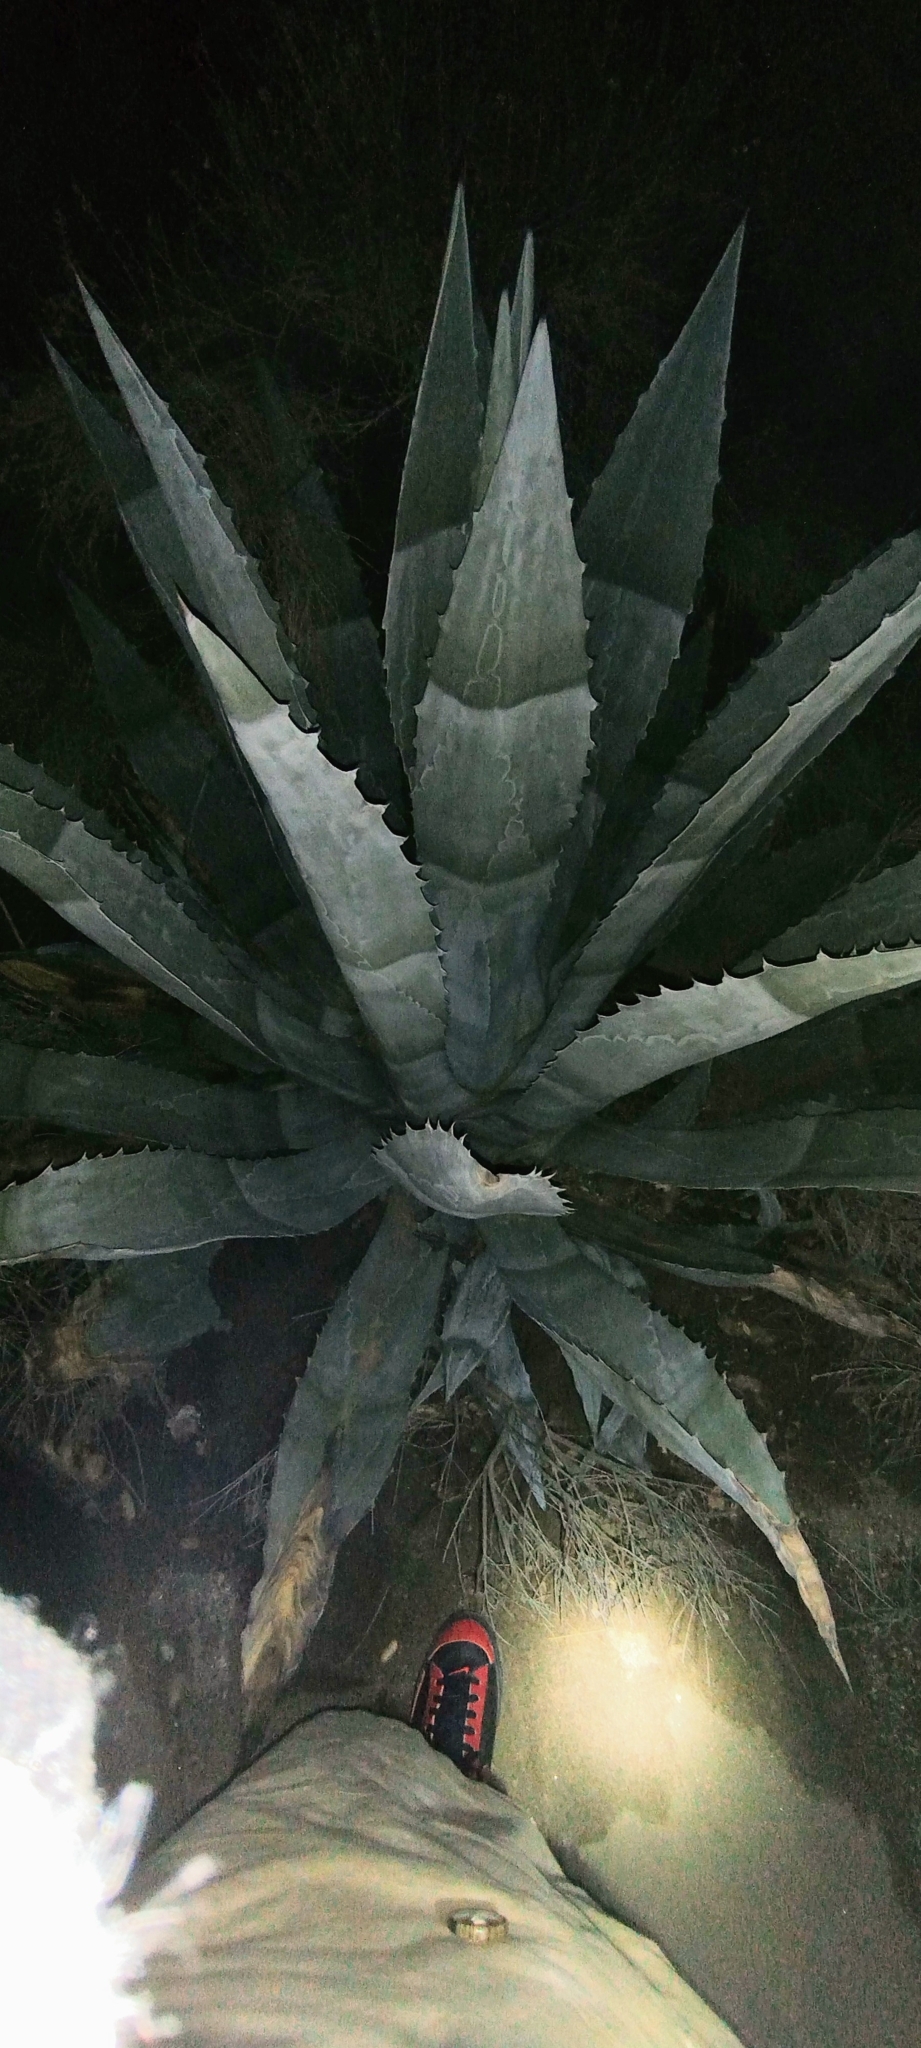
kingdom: Plantae
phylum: Tracheophyta
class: Liliopsida
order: Asparagales
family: Asparagaceae
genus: Agave
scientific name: Agave americana
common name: Centuryplant
